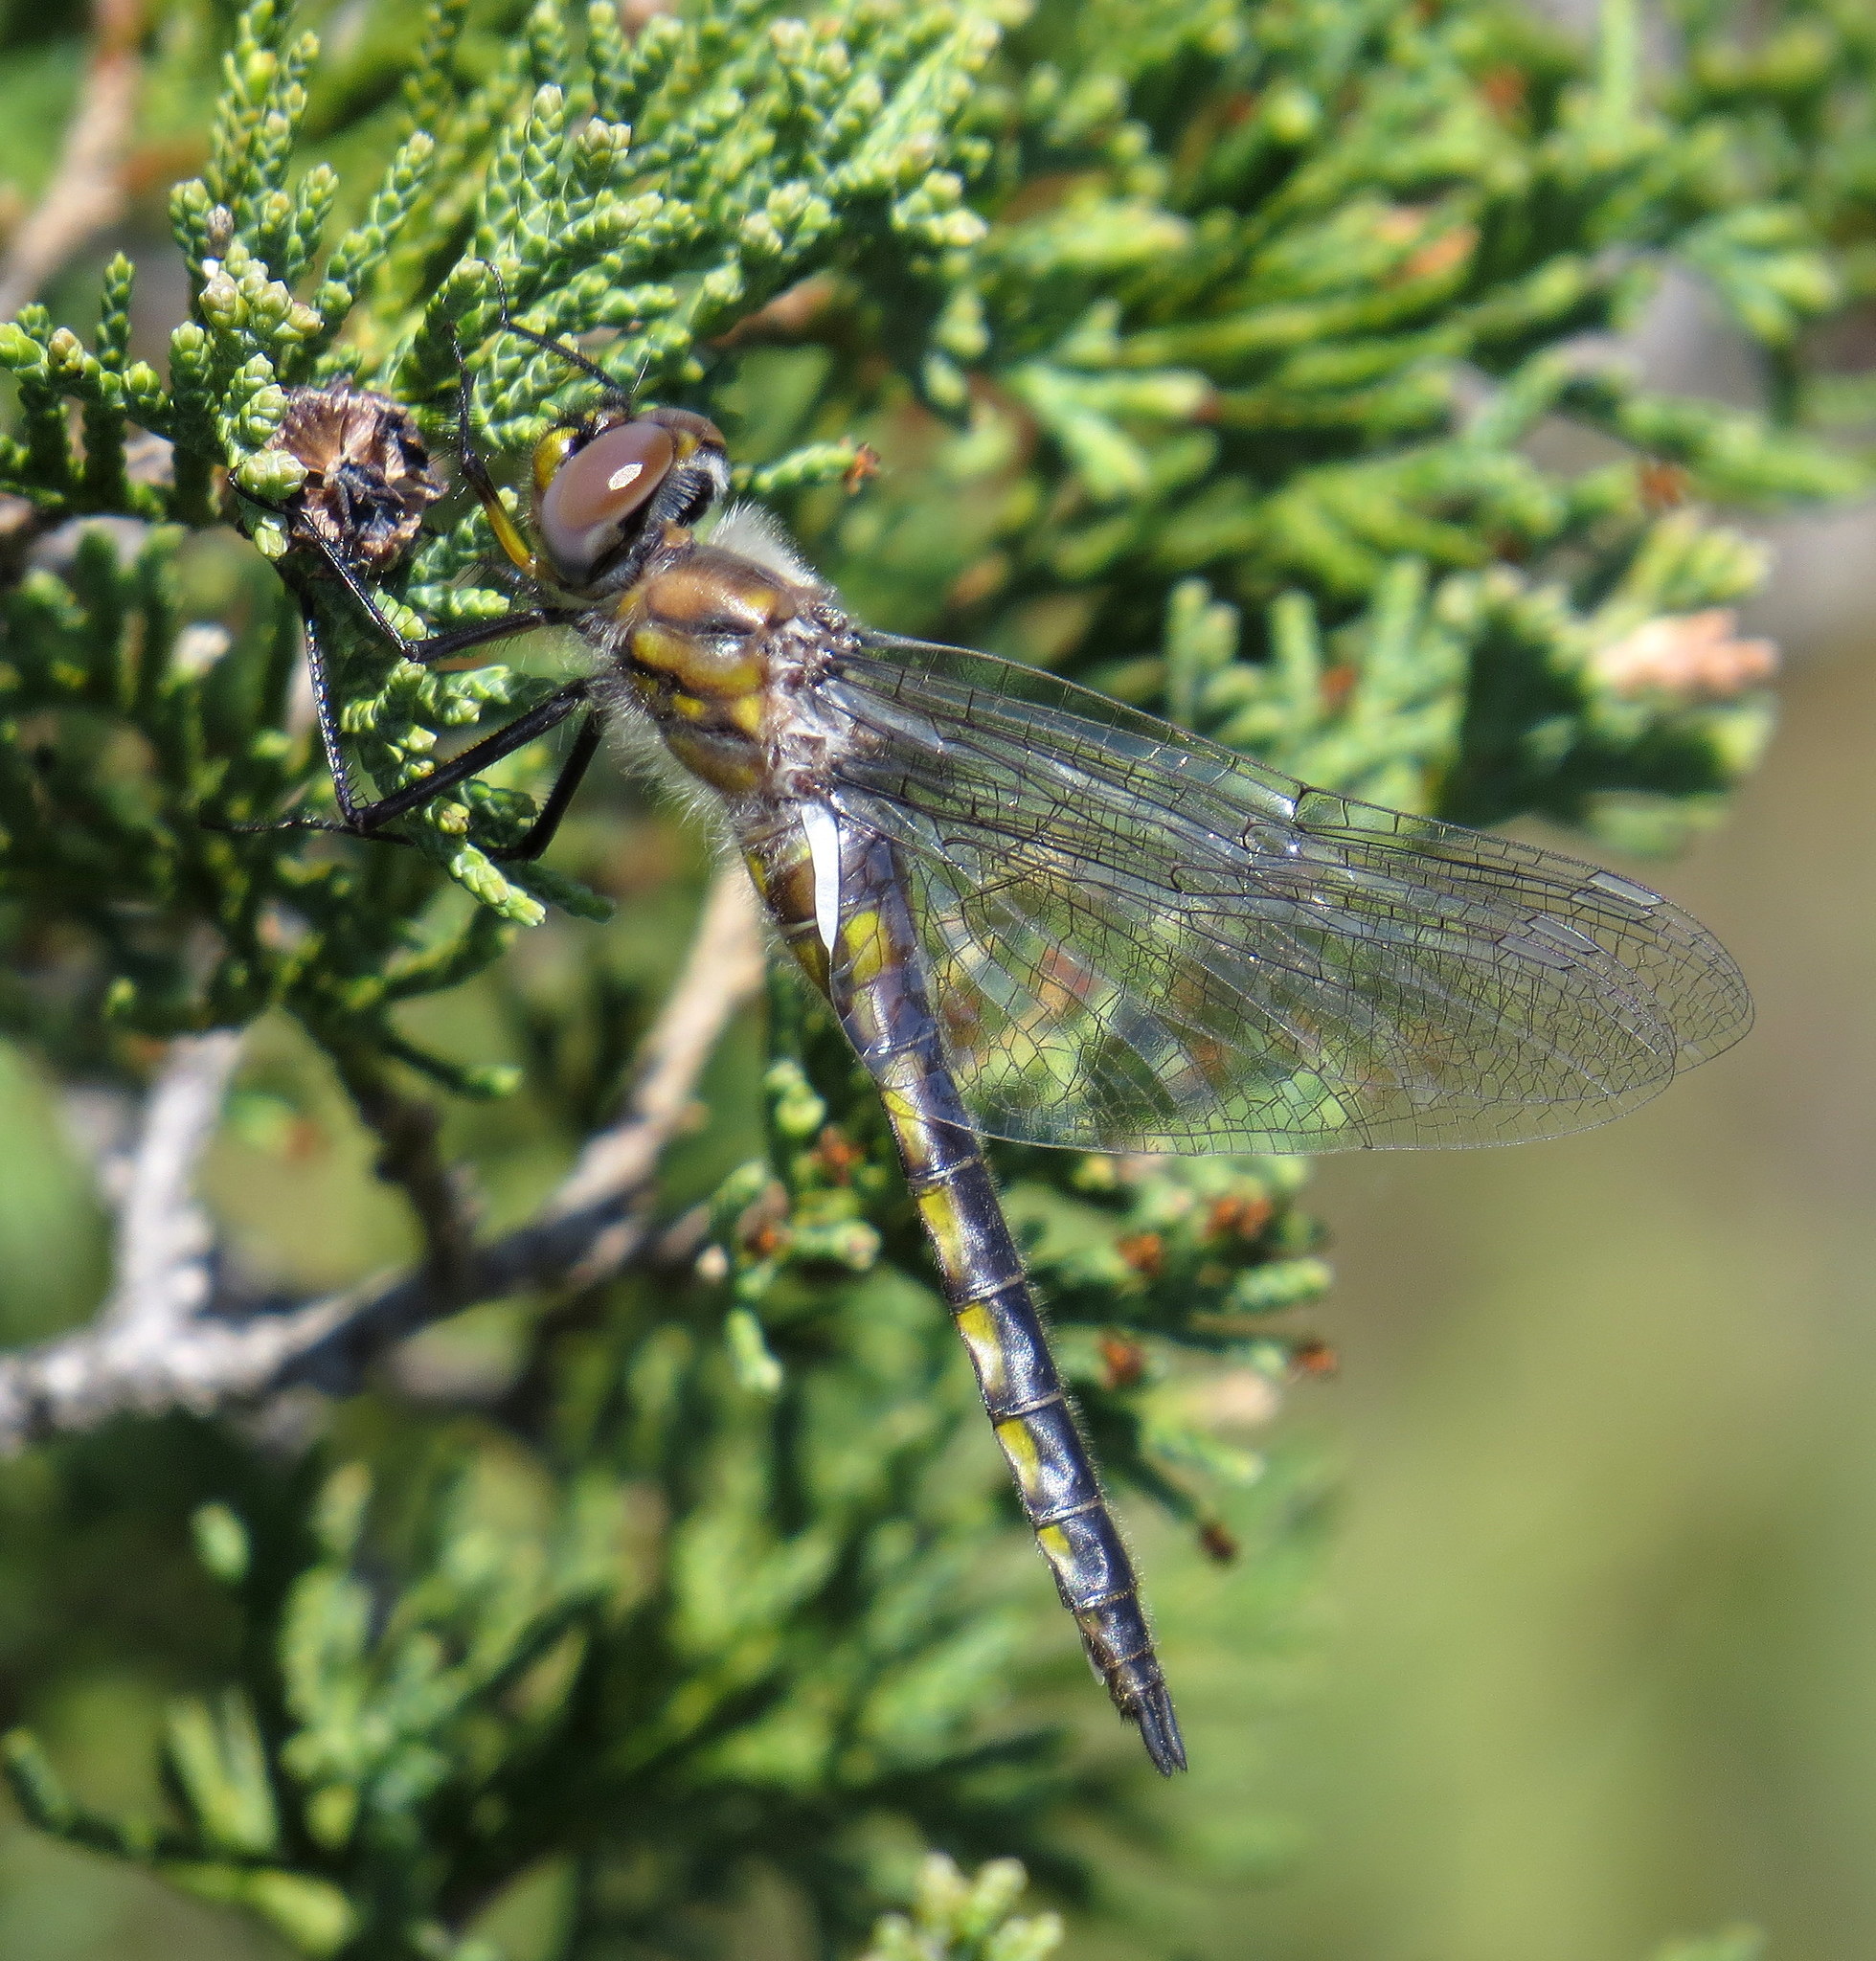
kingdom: Animalia
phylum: Arthropoda
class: Insecta
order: Odonata
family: Corduliidae
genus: Epitheca
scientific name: Epitheca spinigera
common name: Spiny baskettail
